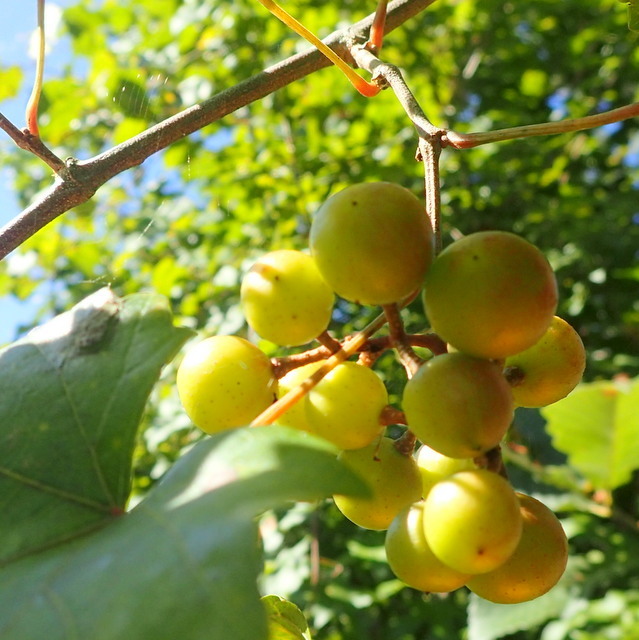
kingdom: Plantae
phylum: Tracheophyta
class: Magnoliopsida
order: Vitales
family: Vitaceae
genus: Vitis
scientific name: Vitis rotundifolia
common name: Muscadine grape
